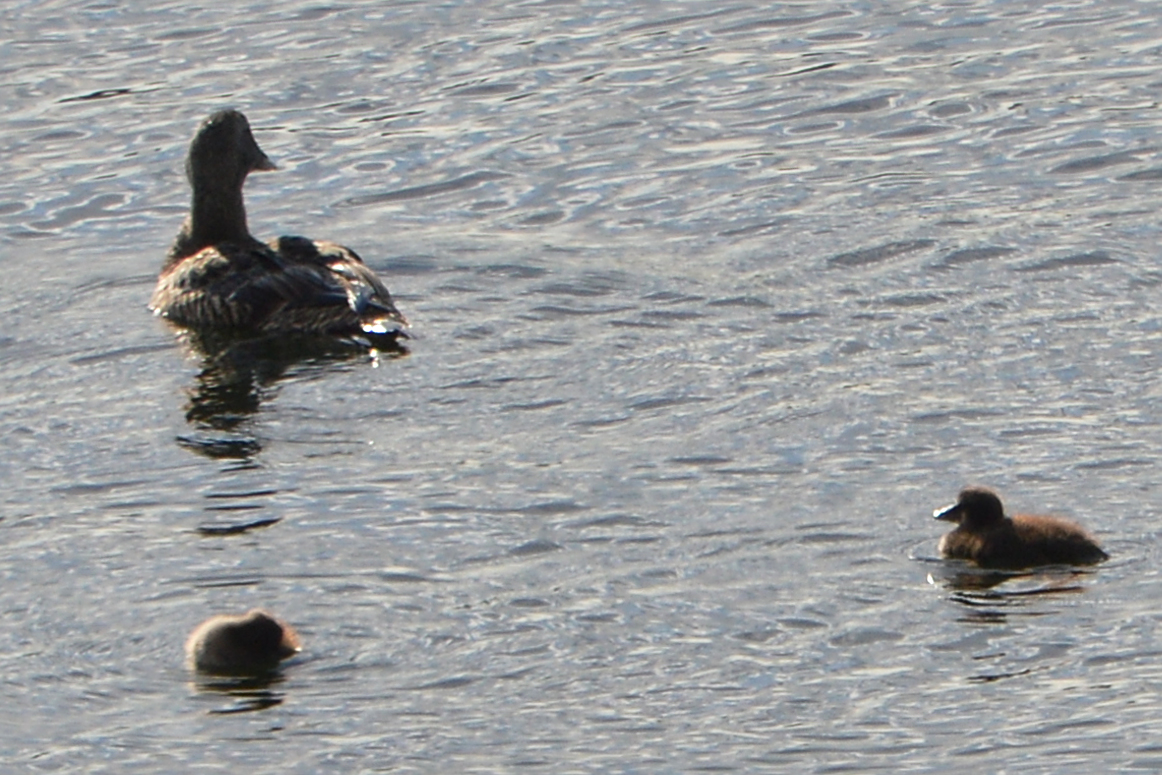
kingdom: Animalia
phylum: Chordata
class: Aves
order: Anseriformes
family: Anatidae
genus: Somateria
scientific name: Somateria mollissima
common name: Common eider
